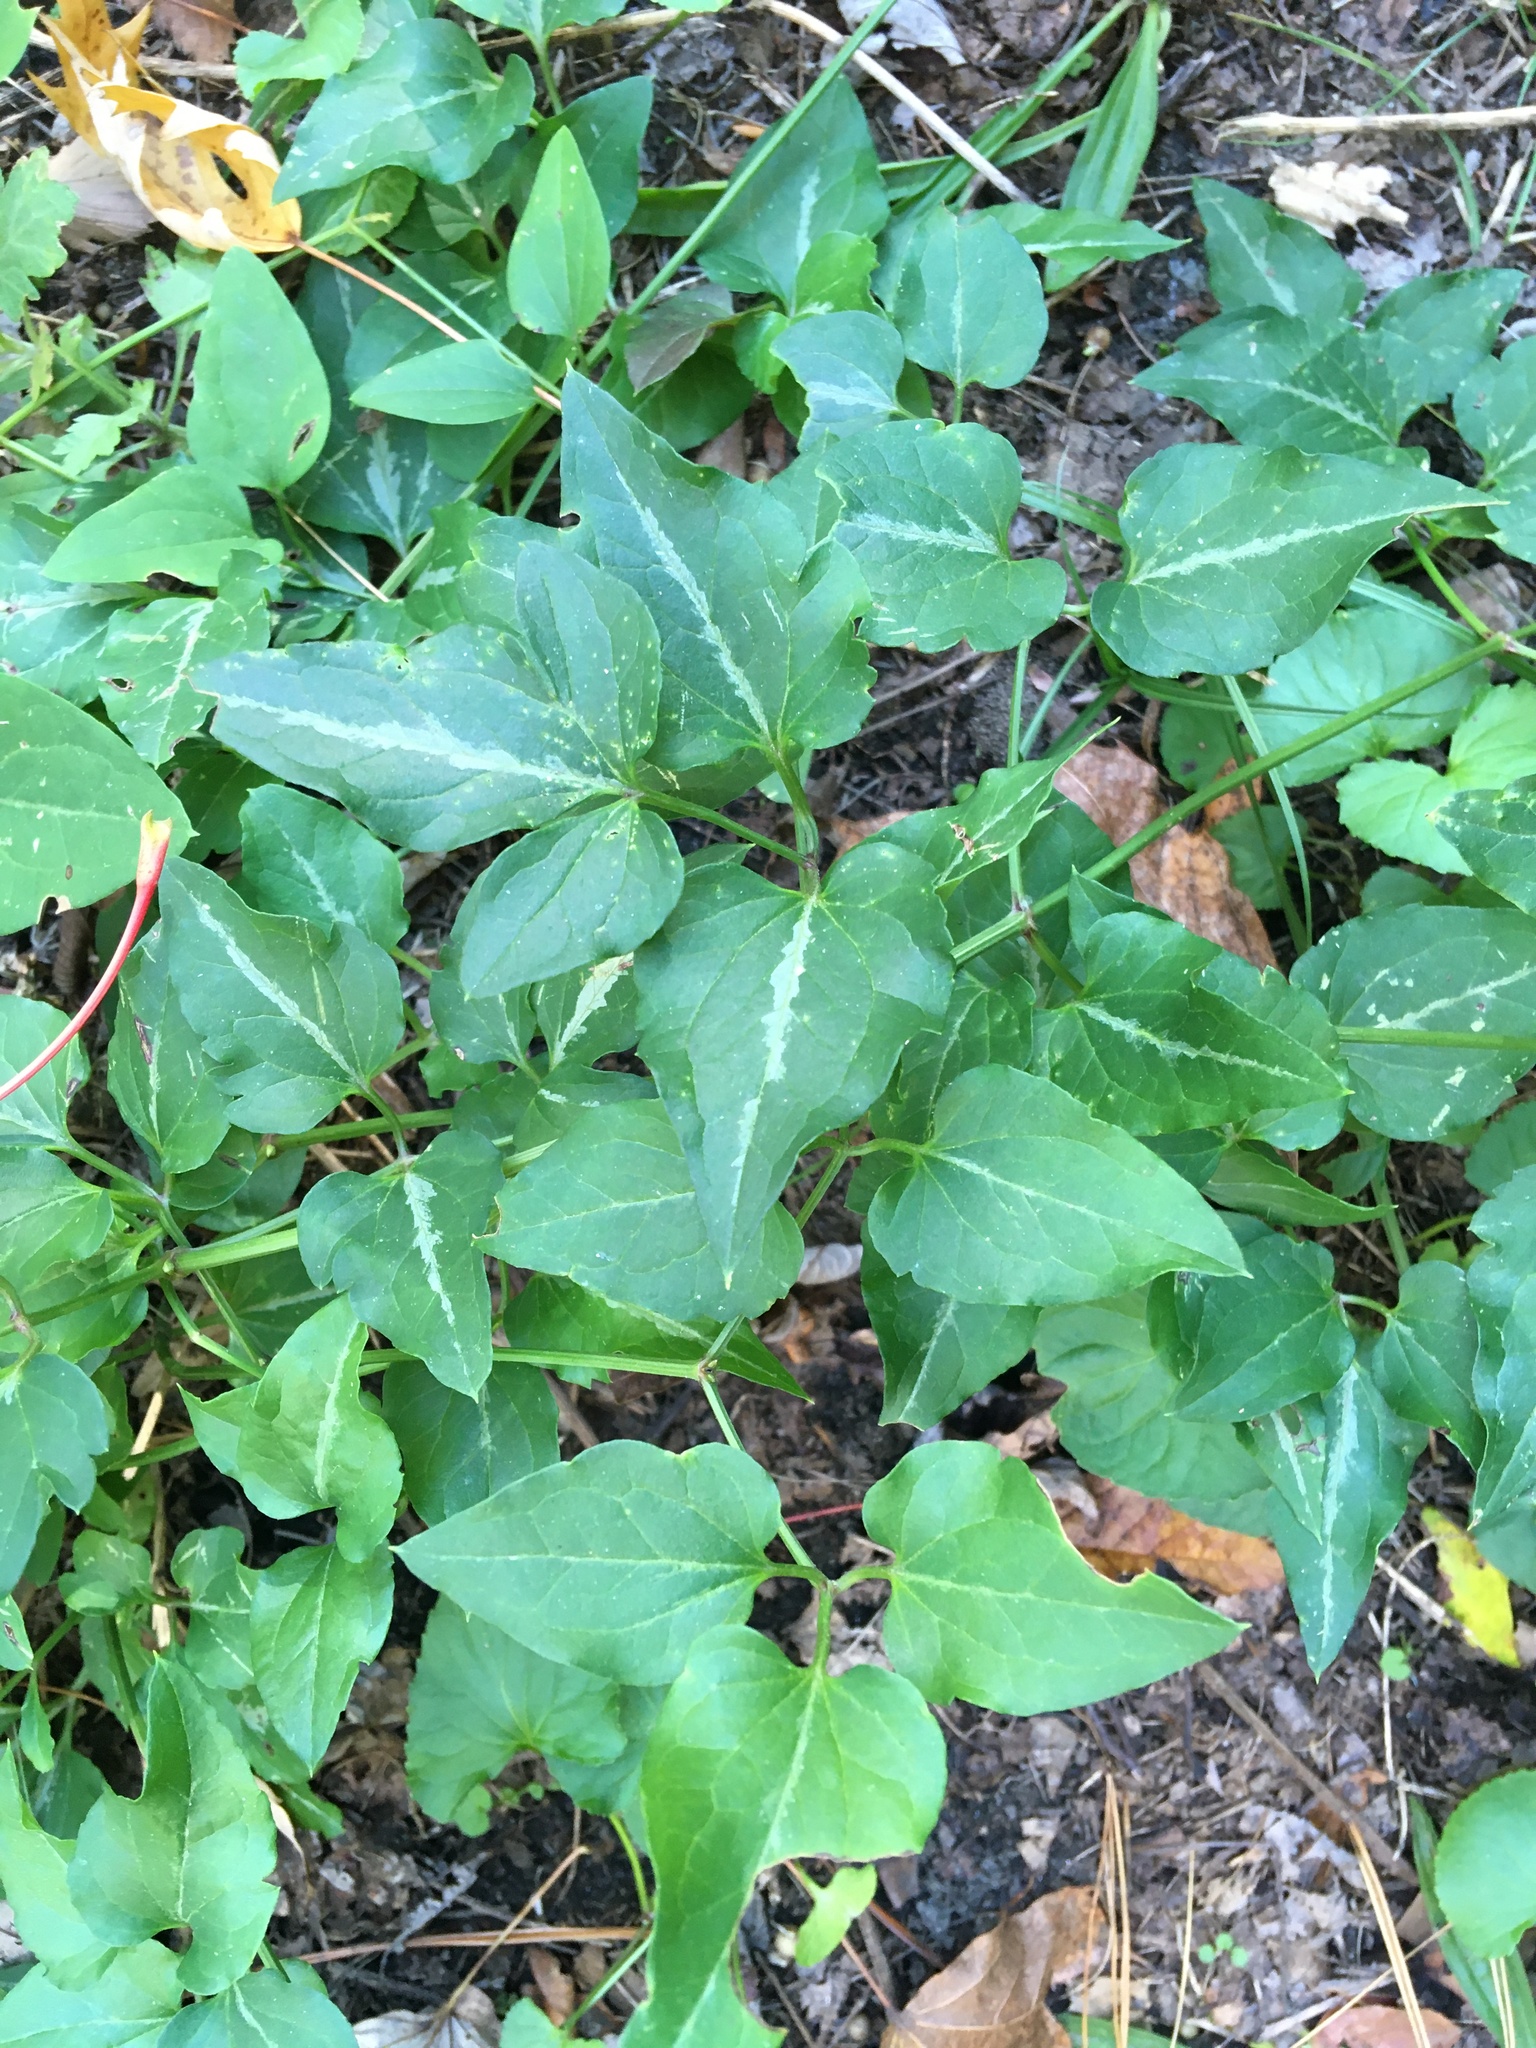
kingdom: Plantae
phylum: Tracheophyta
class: Magnoliopsida
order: Ranunculales
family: Ranunculaceae
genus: Clematis
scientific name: Clematis terniflora
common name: Sweet autumn clematis
